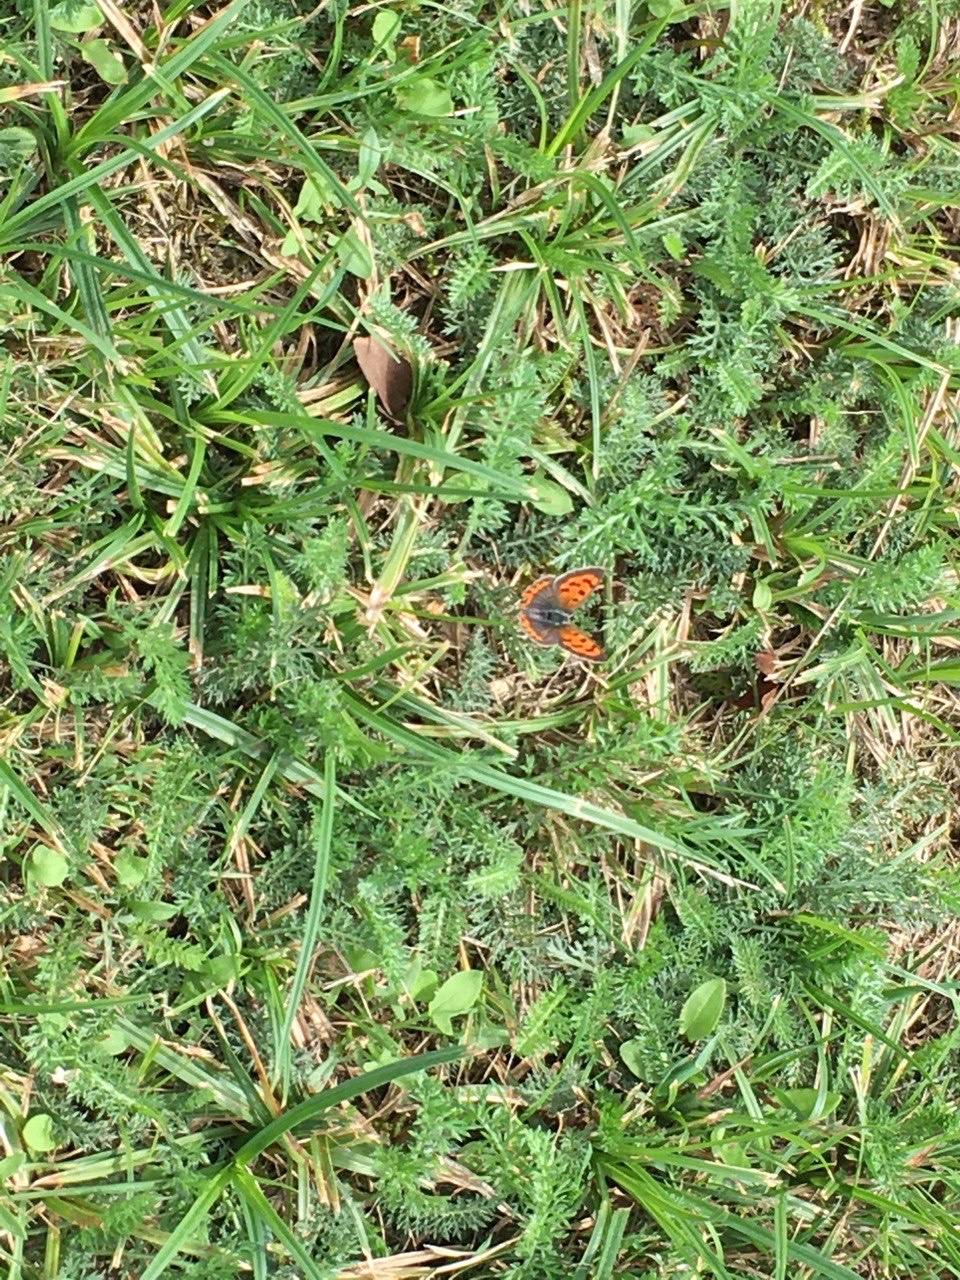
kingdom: Animalia
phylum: Arthropoda
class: Insecta
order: Lepidoptera
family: Lycaenidae
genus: Lycaena
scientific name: Lycaena phlaeas
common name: Small copper
